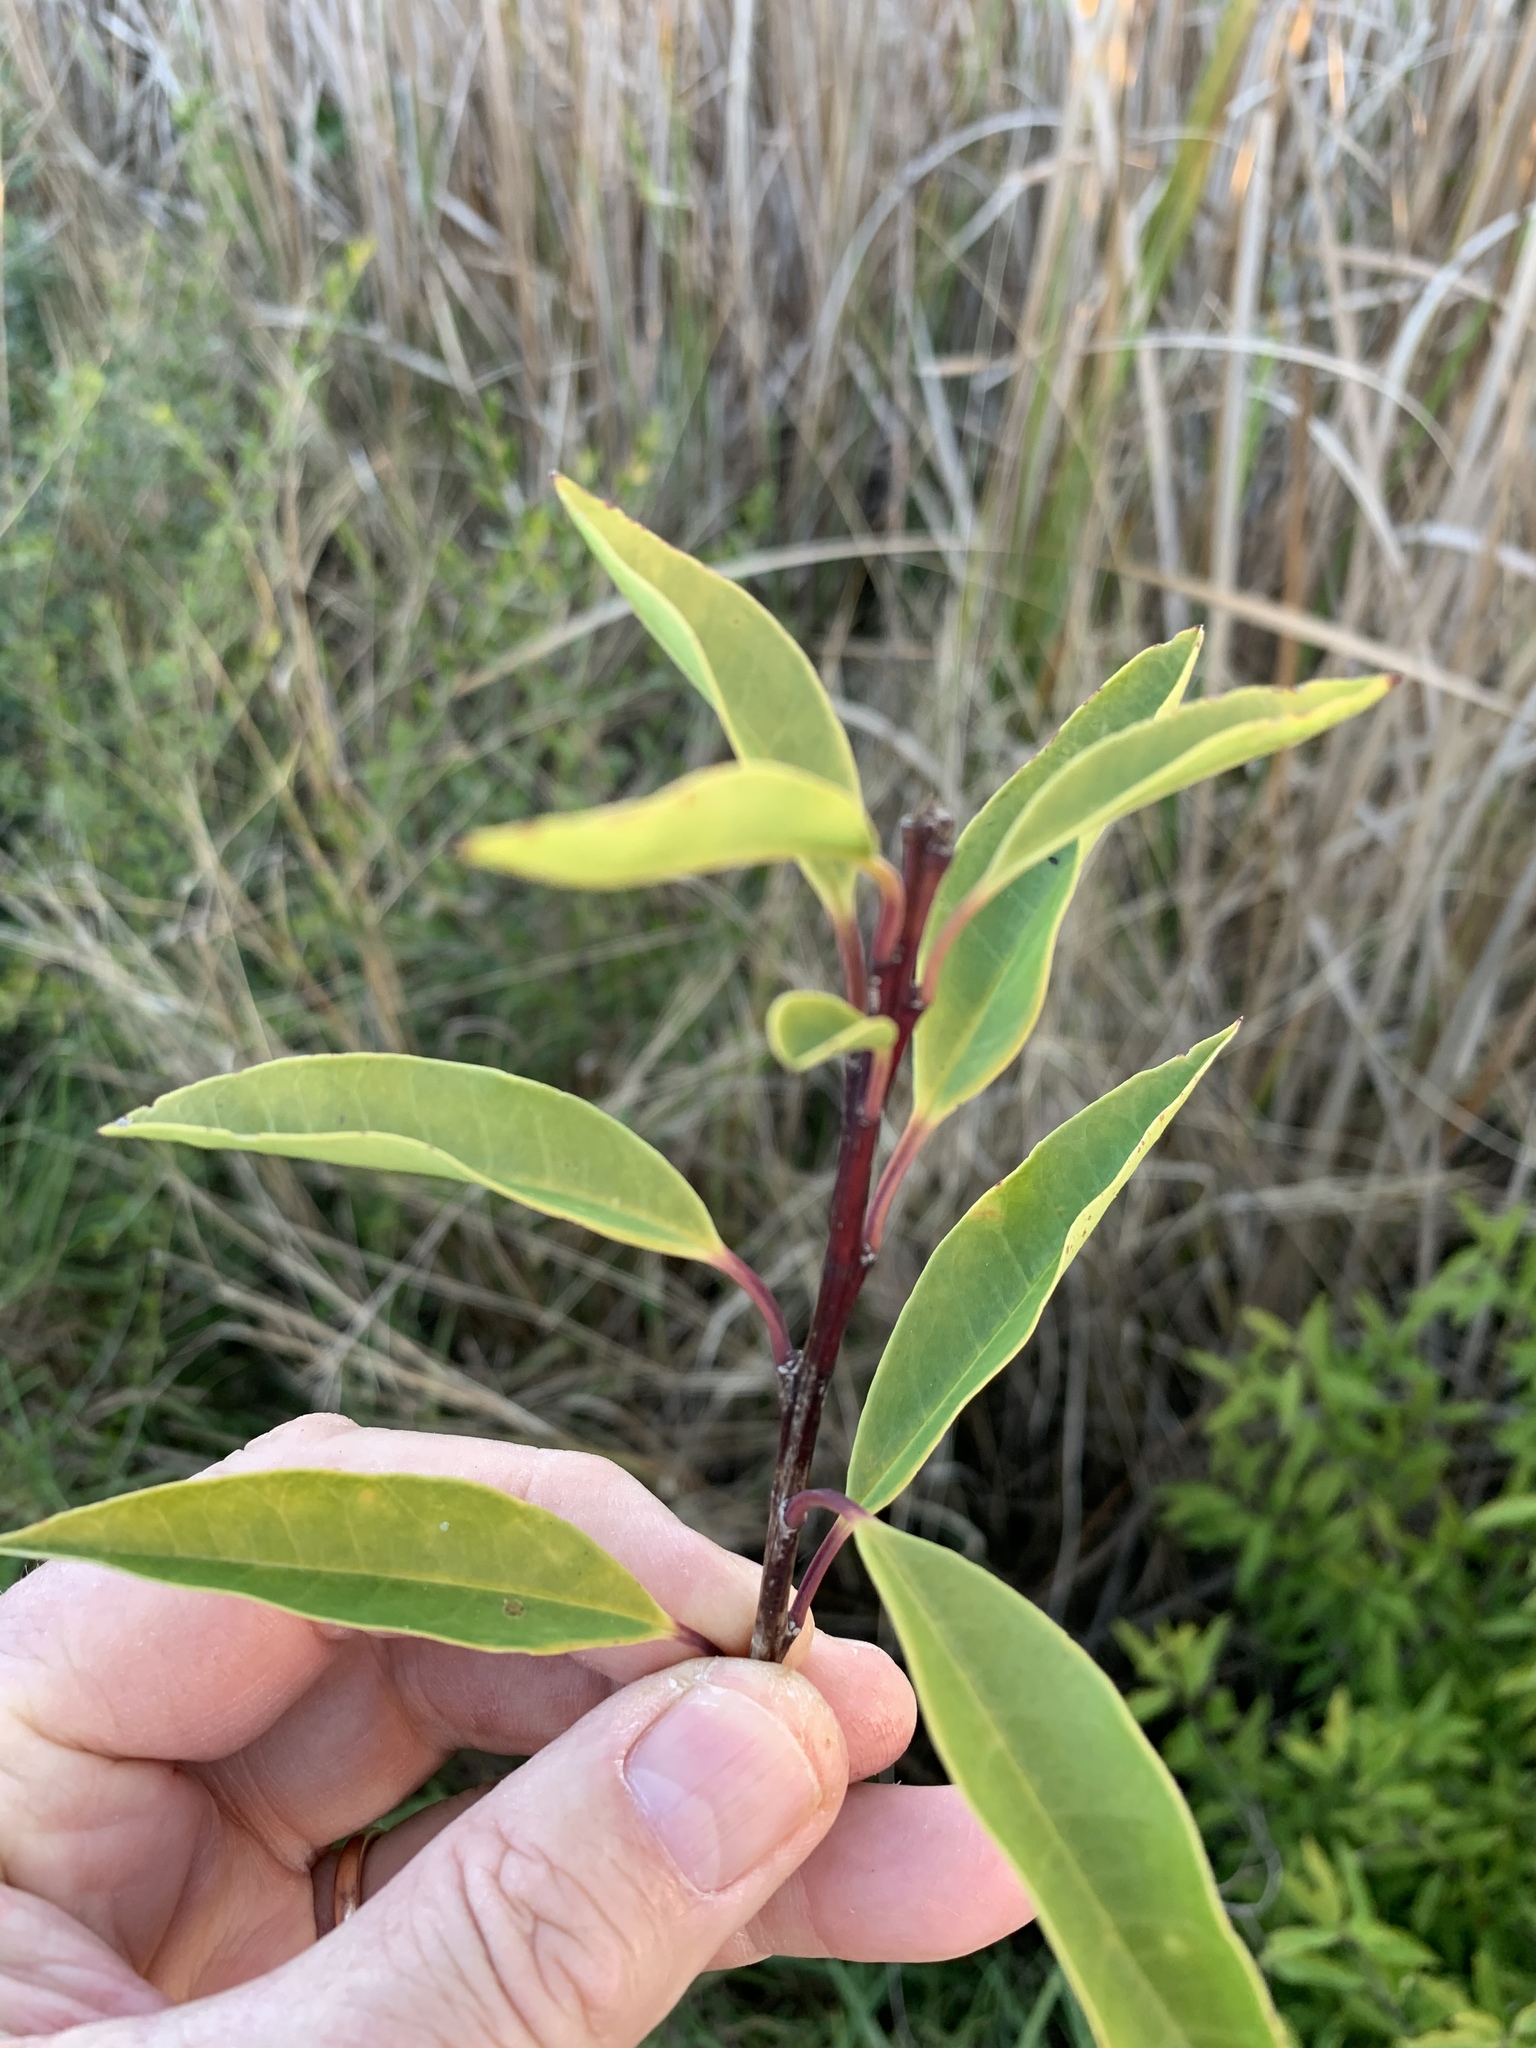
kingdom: Plantae
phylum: Tracheophyta
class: Magnoliopsida
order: Aquifoliales
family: Aquifoliaceae
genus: Ilex
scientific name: Ilex mitis
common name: African holly
